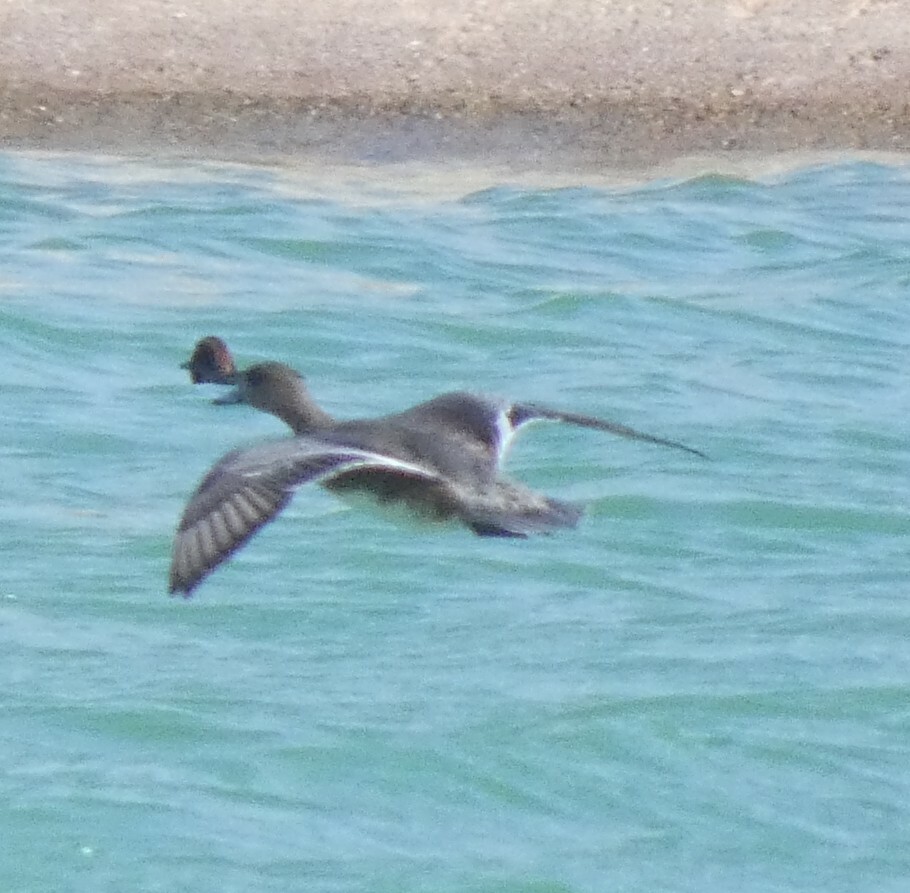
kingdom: Animalia
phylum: Chordata
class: Aves
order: Anseriformes
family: Anatidae
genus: Anas
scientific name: Anas acuta
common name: Northern pintail
